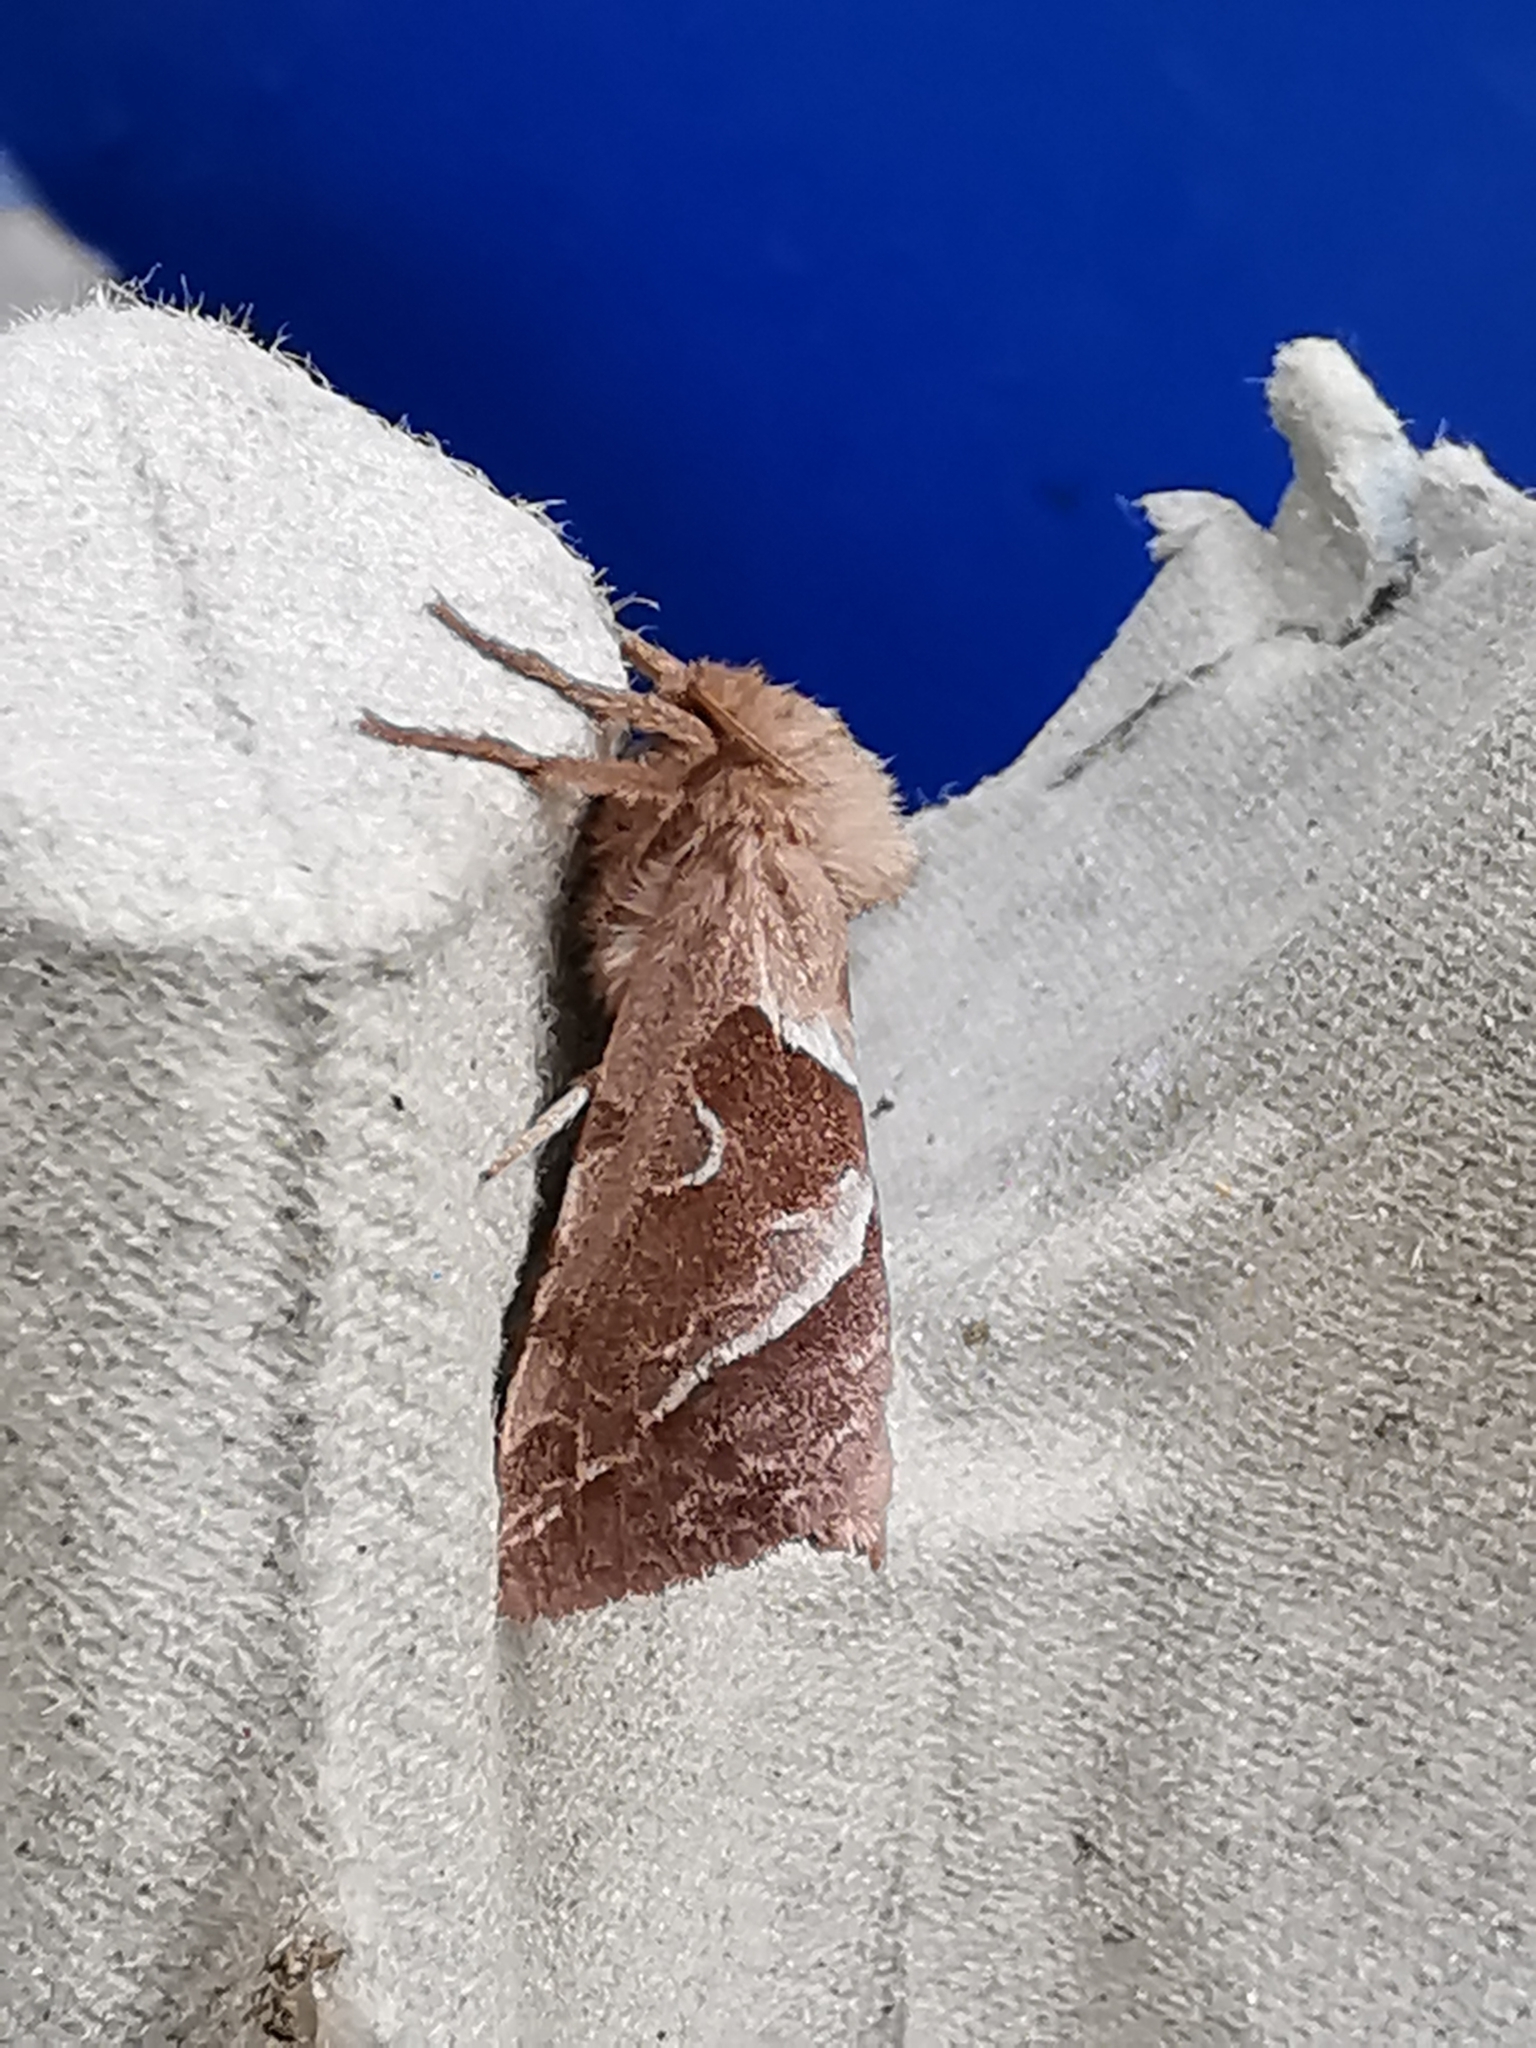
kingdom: Animalia
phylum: Arthropoda
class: Insecta
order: Lepidoptera
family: Hepialidae
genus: Triodia
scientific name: Triodia sylvina
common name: Orange swift
